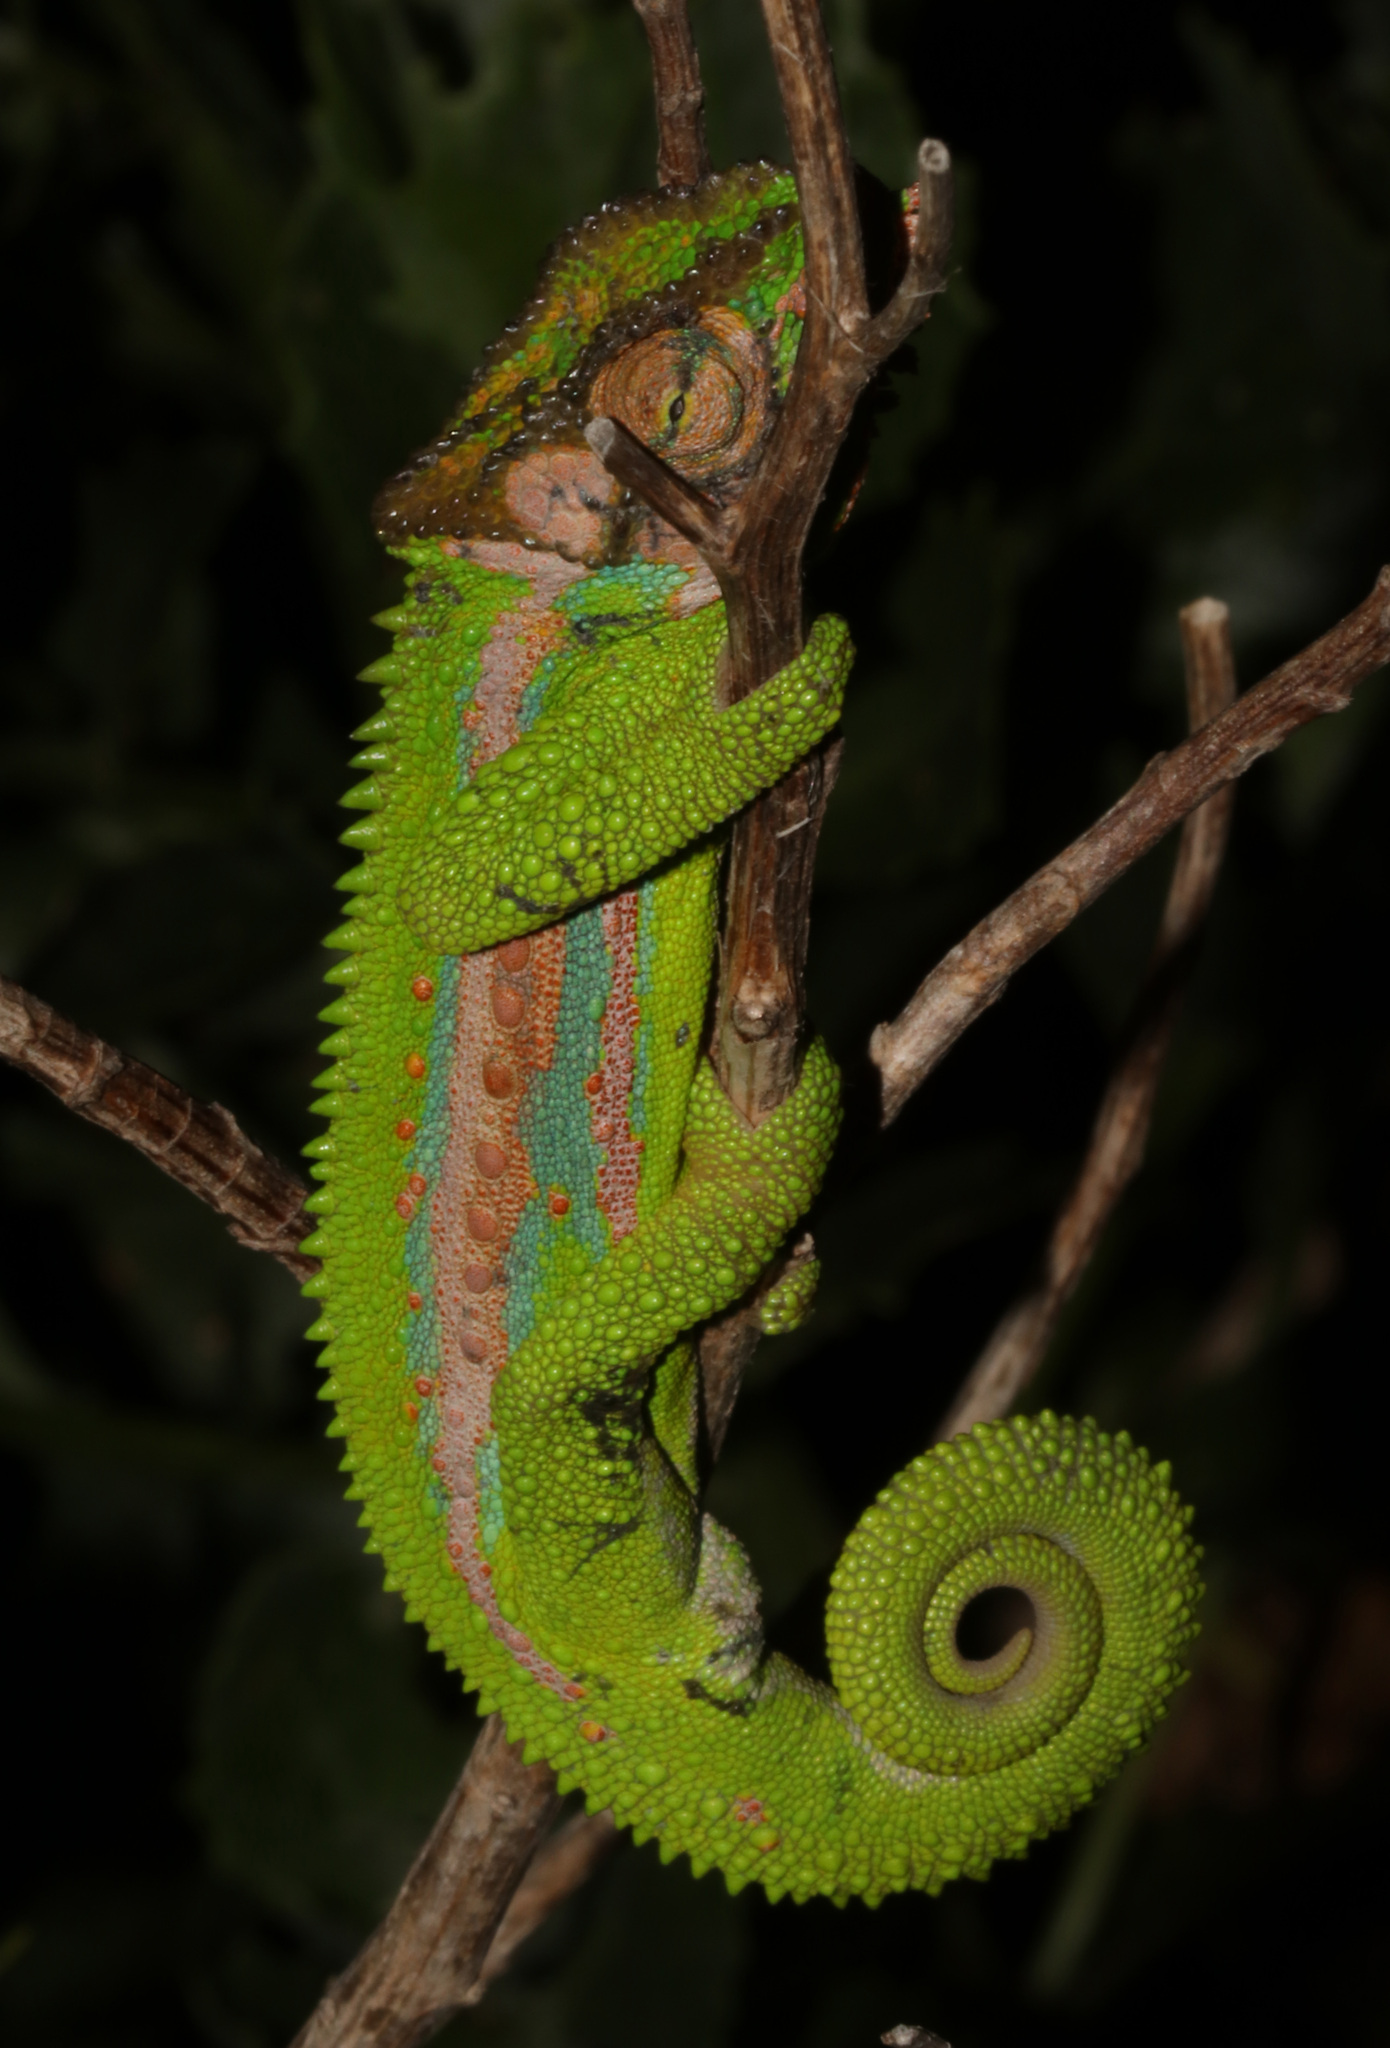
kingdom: Animalia
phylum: Chordata
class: Squamata
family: Chamaeleonidae
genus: Bradypodion
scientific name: Bradypodion pumilum
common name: Cape dwarf chameleon
